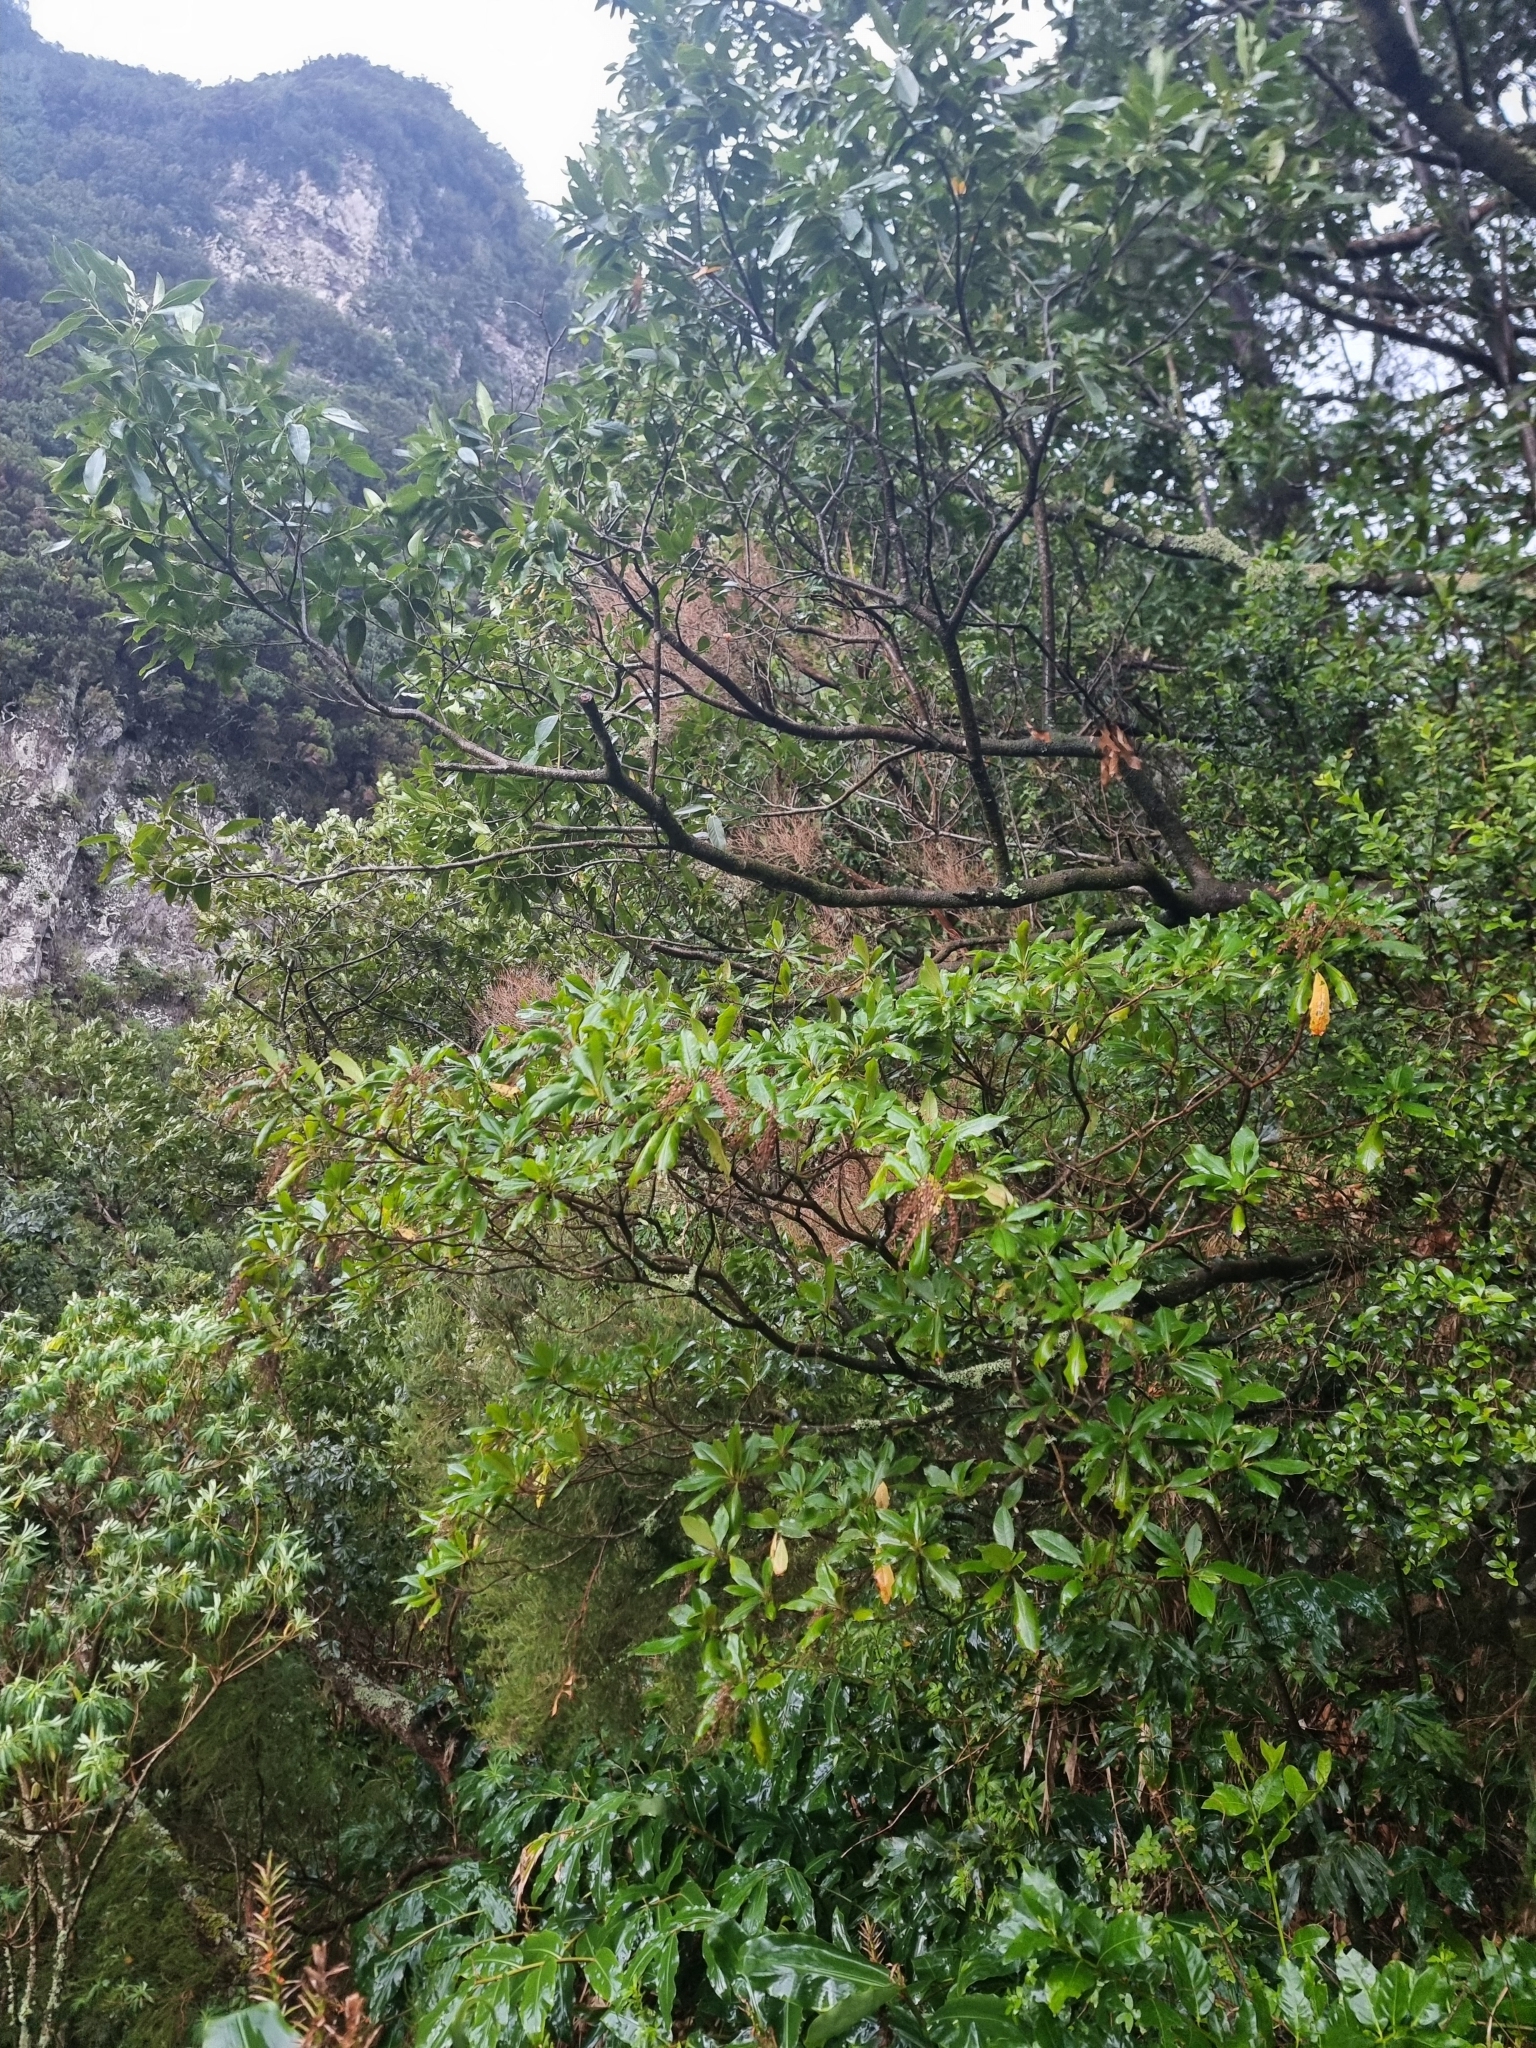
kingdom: Plantae
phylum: Tracheophyta
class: Magnoliopsida
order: Ericales
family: Clethraceae
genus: Clethra
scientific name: Clethra arborea
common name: Lily-of-the-valley-tree
